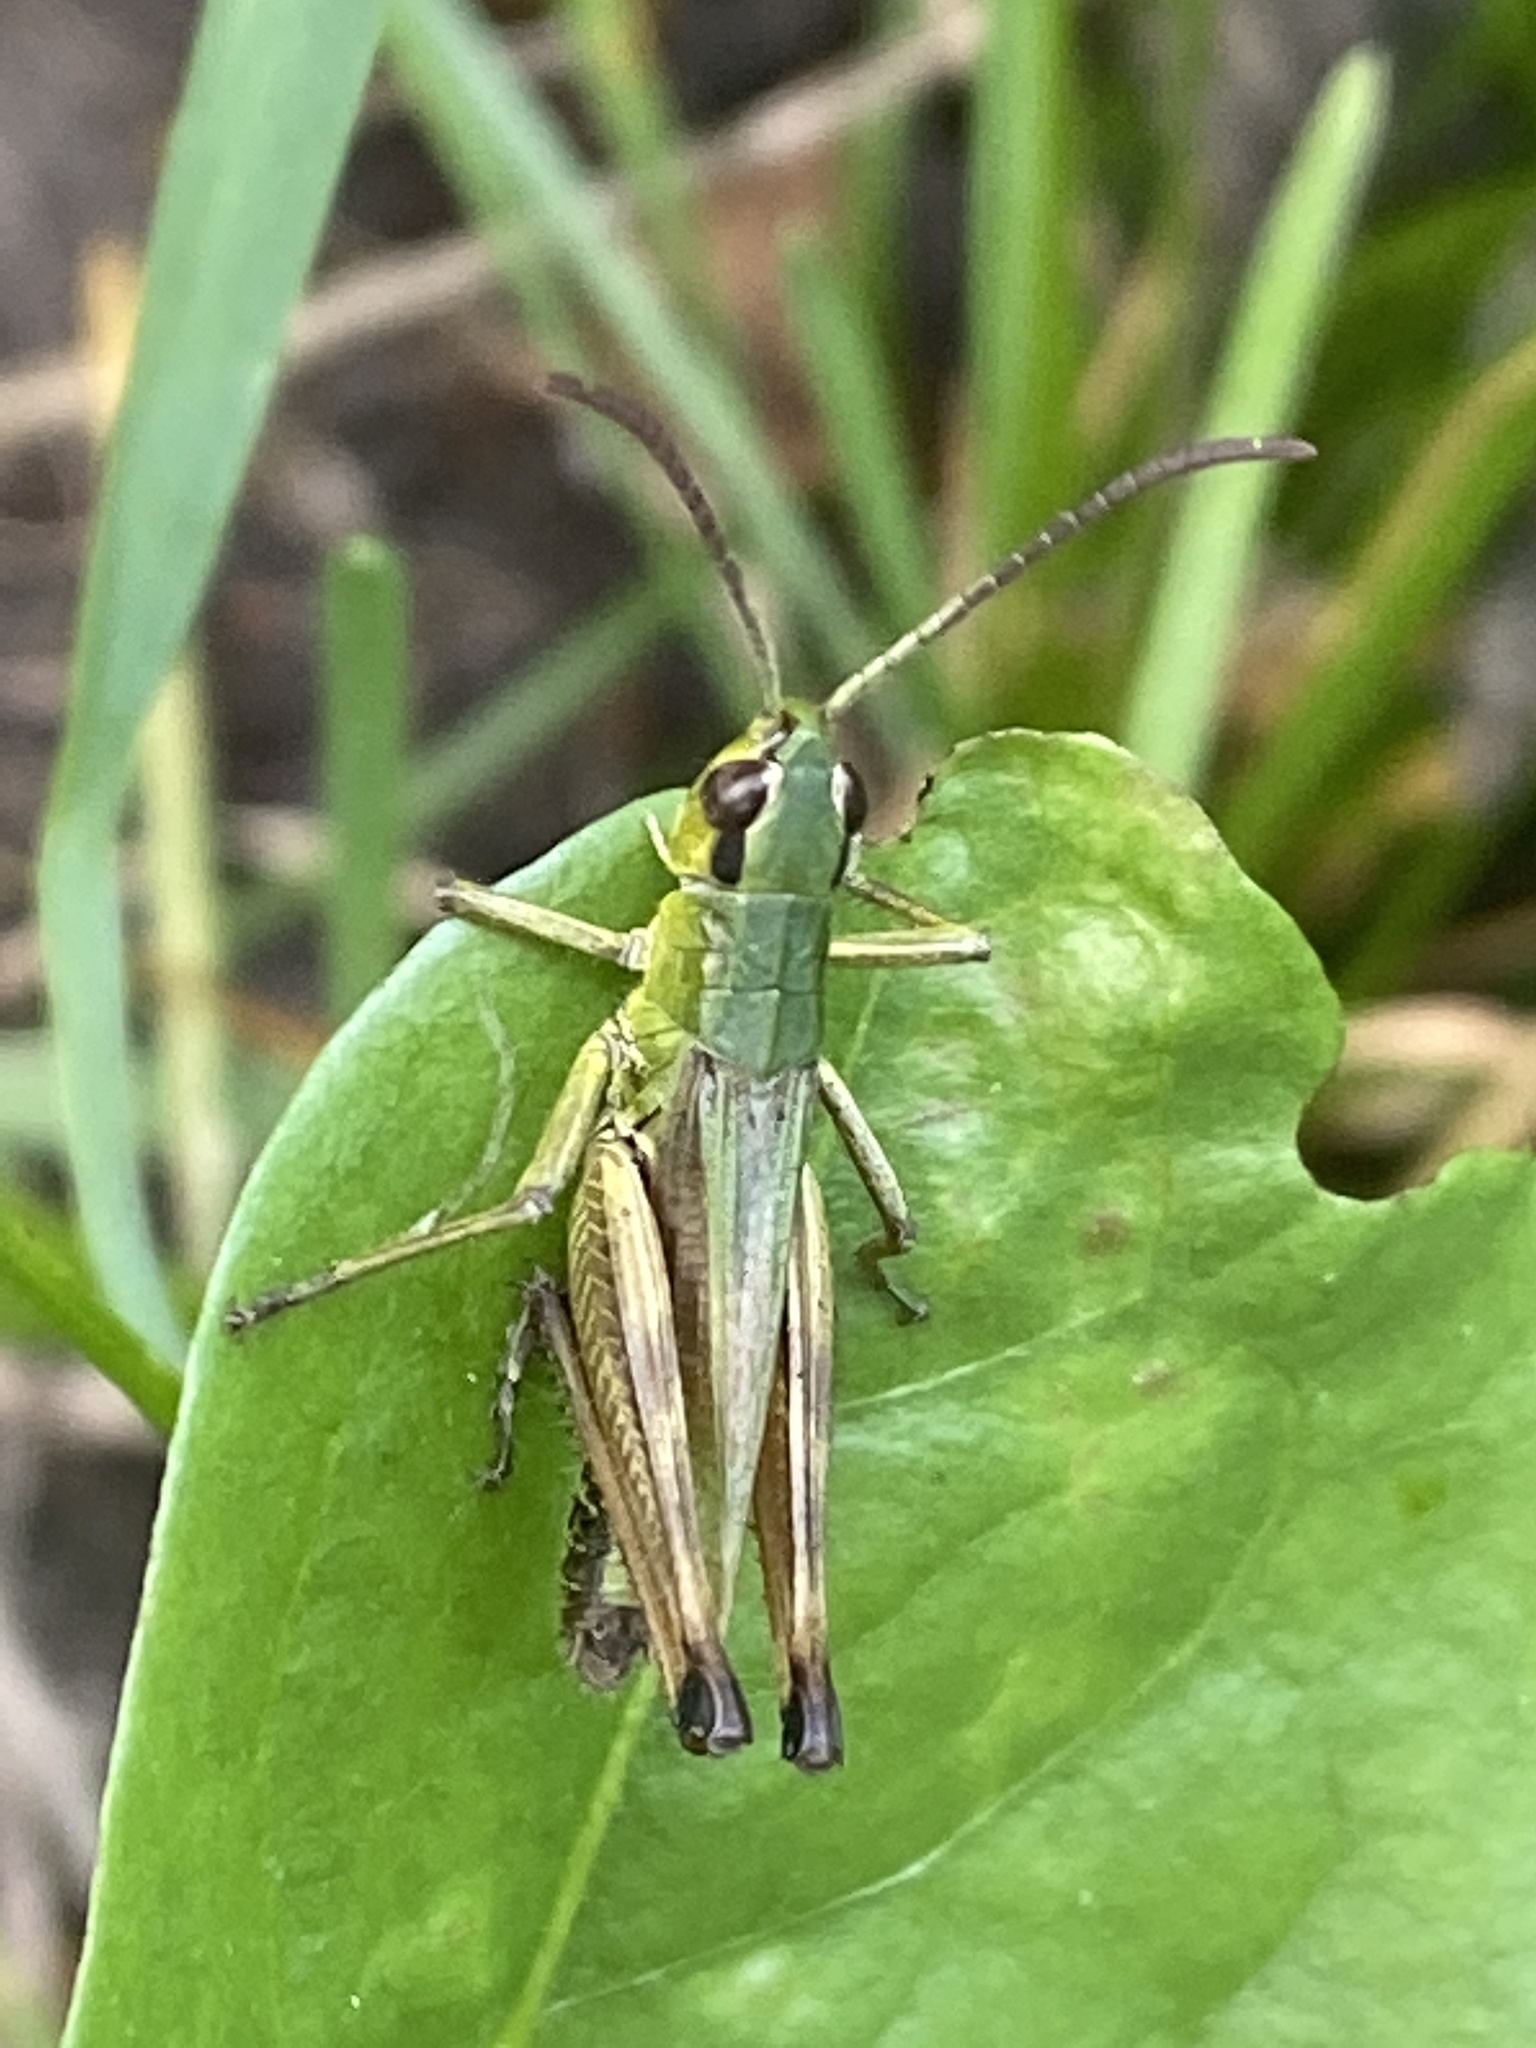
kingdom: Animalia
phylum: Arthropoda
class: Insecta
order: Orthoptera
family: Acrididae
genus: Pseudochorthippus
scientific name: Pseudochorthippus parallelus
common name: Meadow grasshopper
